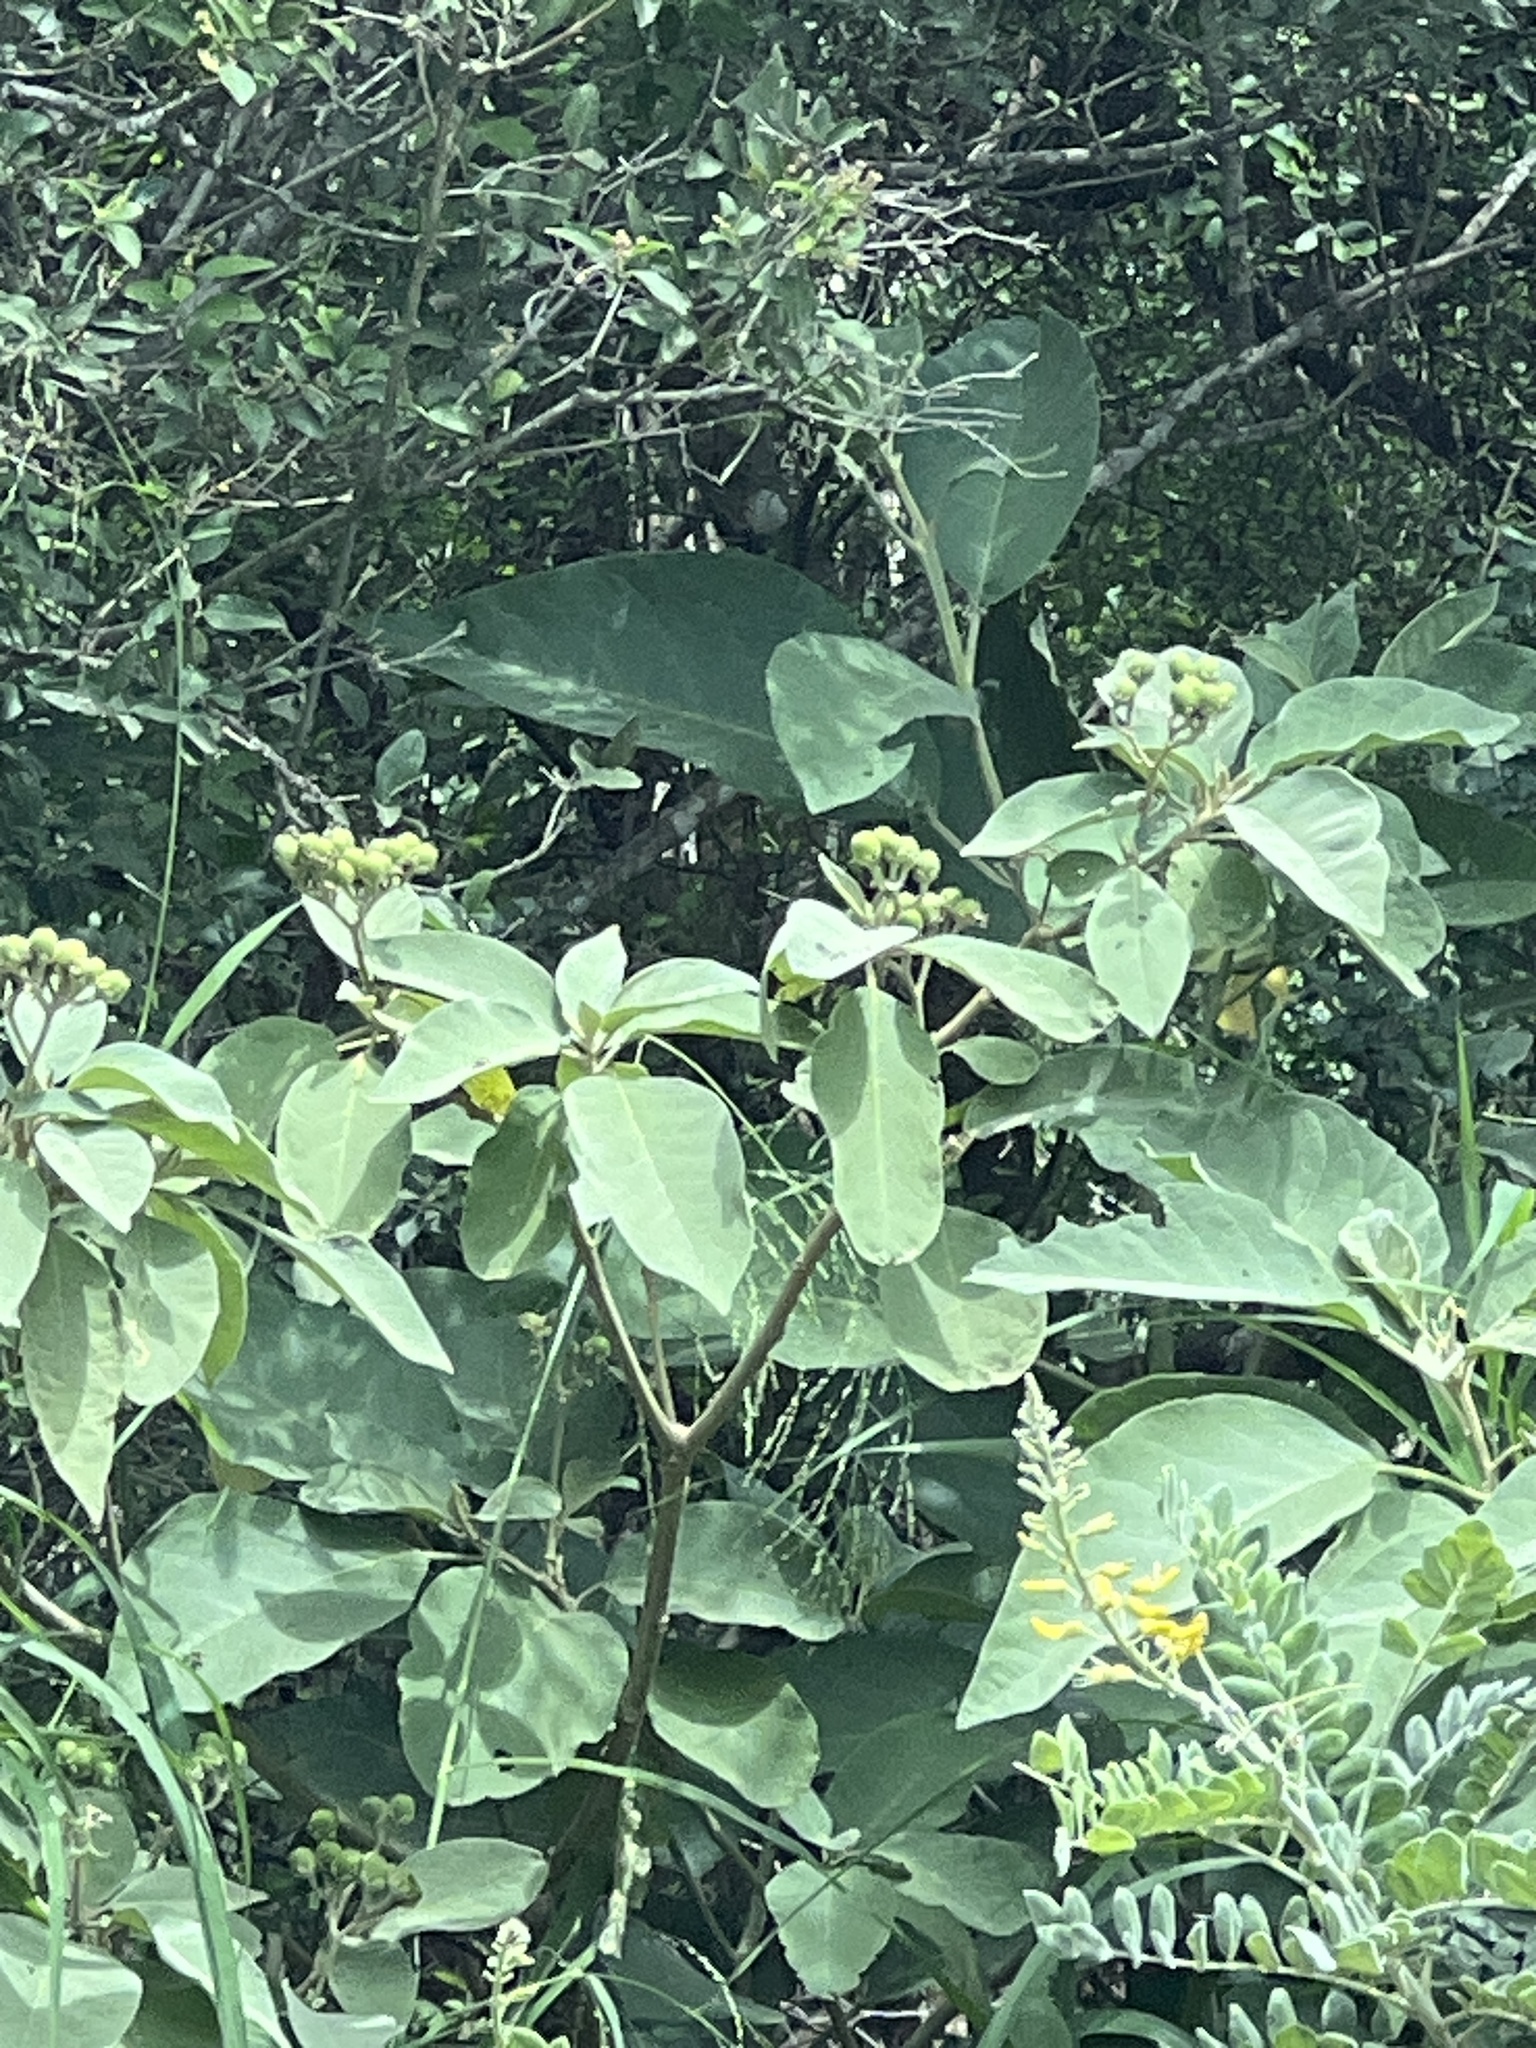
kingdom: Plantae
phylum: Tracheophyta
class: Magnoliopsida
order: Solanales
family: Solanaceae
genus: Solanum
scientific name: Solanum erianthum
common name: Tobacco-tree
